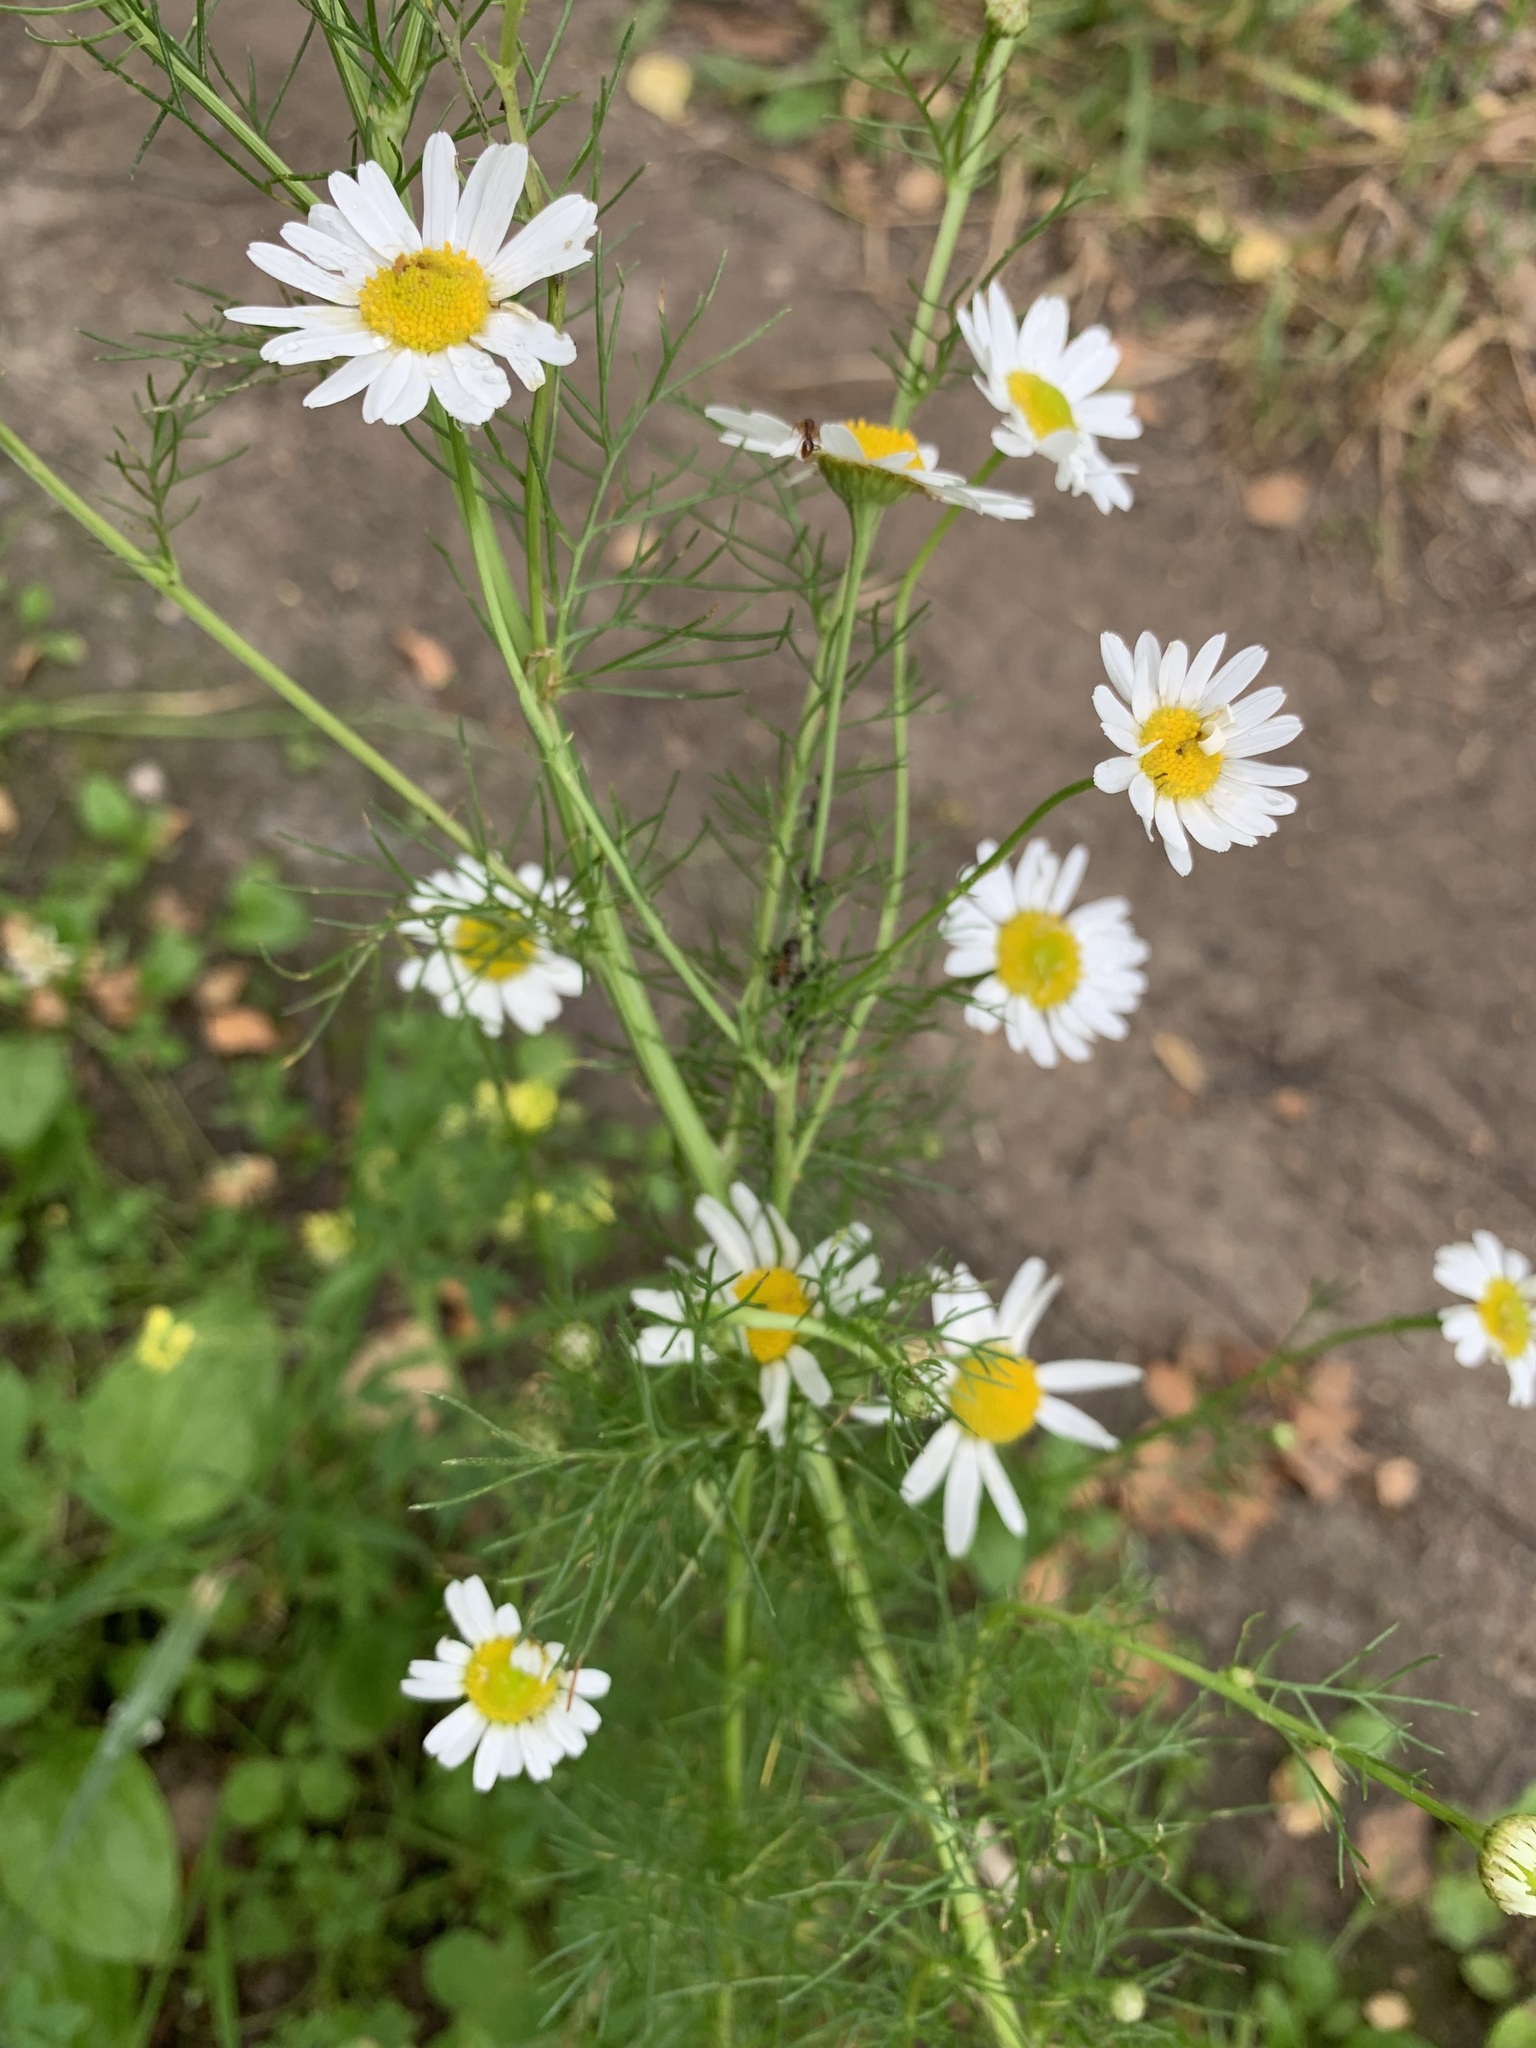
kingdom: Plantae
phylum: Tracheophyta
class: Magnoliopsida
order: Asterales
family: Asteraceae
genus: Tripleurospermum
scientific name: Tripleurospermum inodorum
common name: Scentless mayweed
